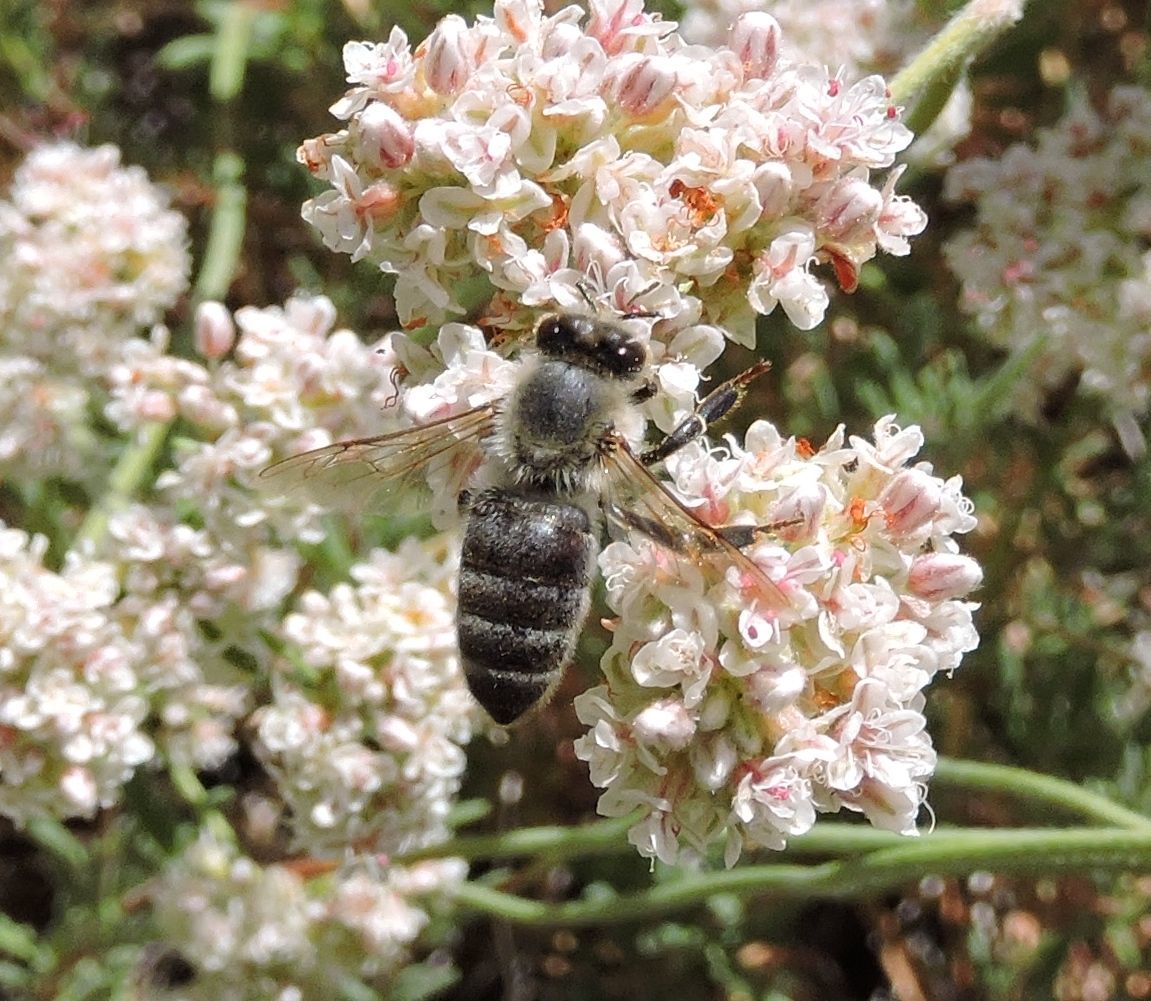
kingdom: Animalia
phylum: Arthropoda
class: Insecta
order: Hymenoptera
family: Apidae
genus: Apis
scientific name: Apis mellifera
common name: Honey bee
